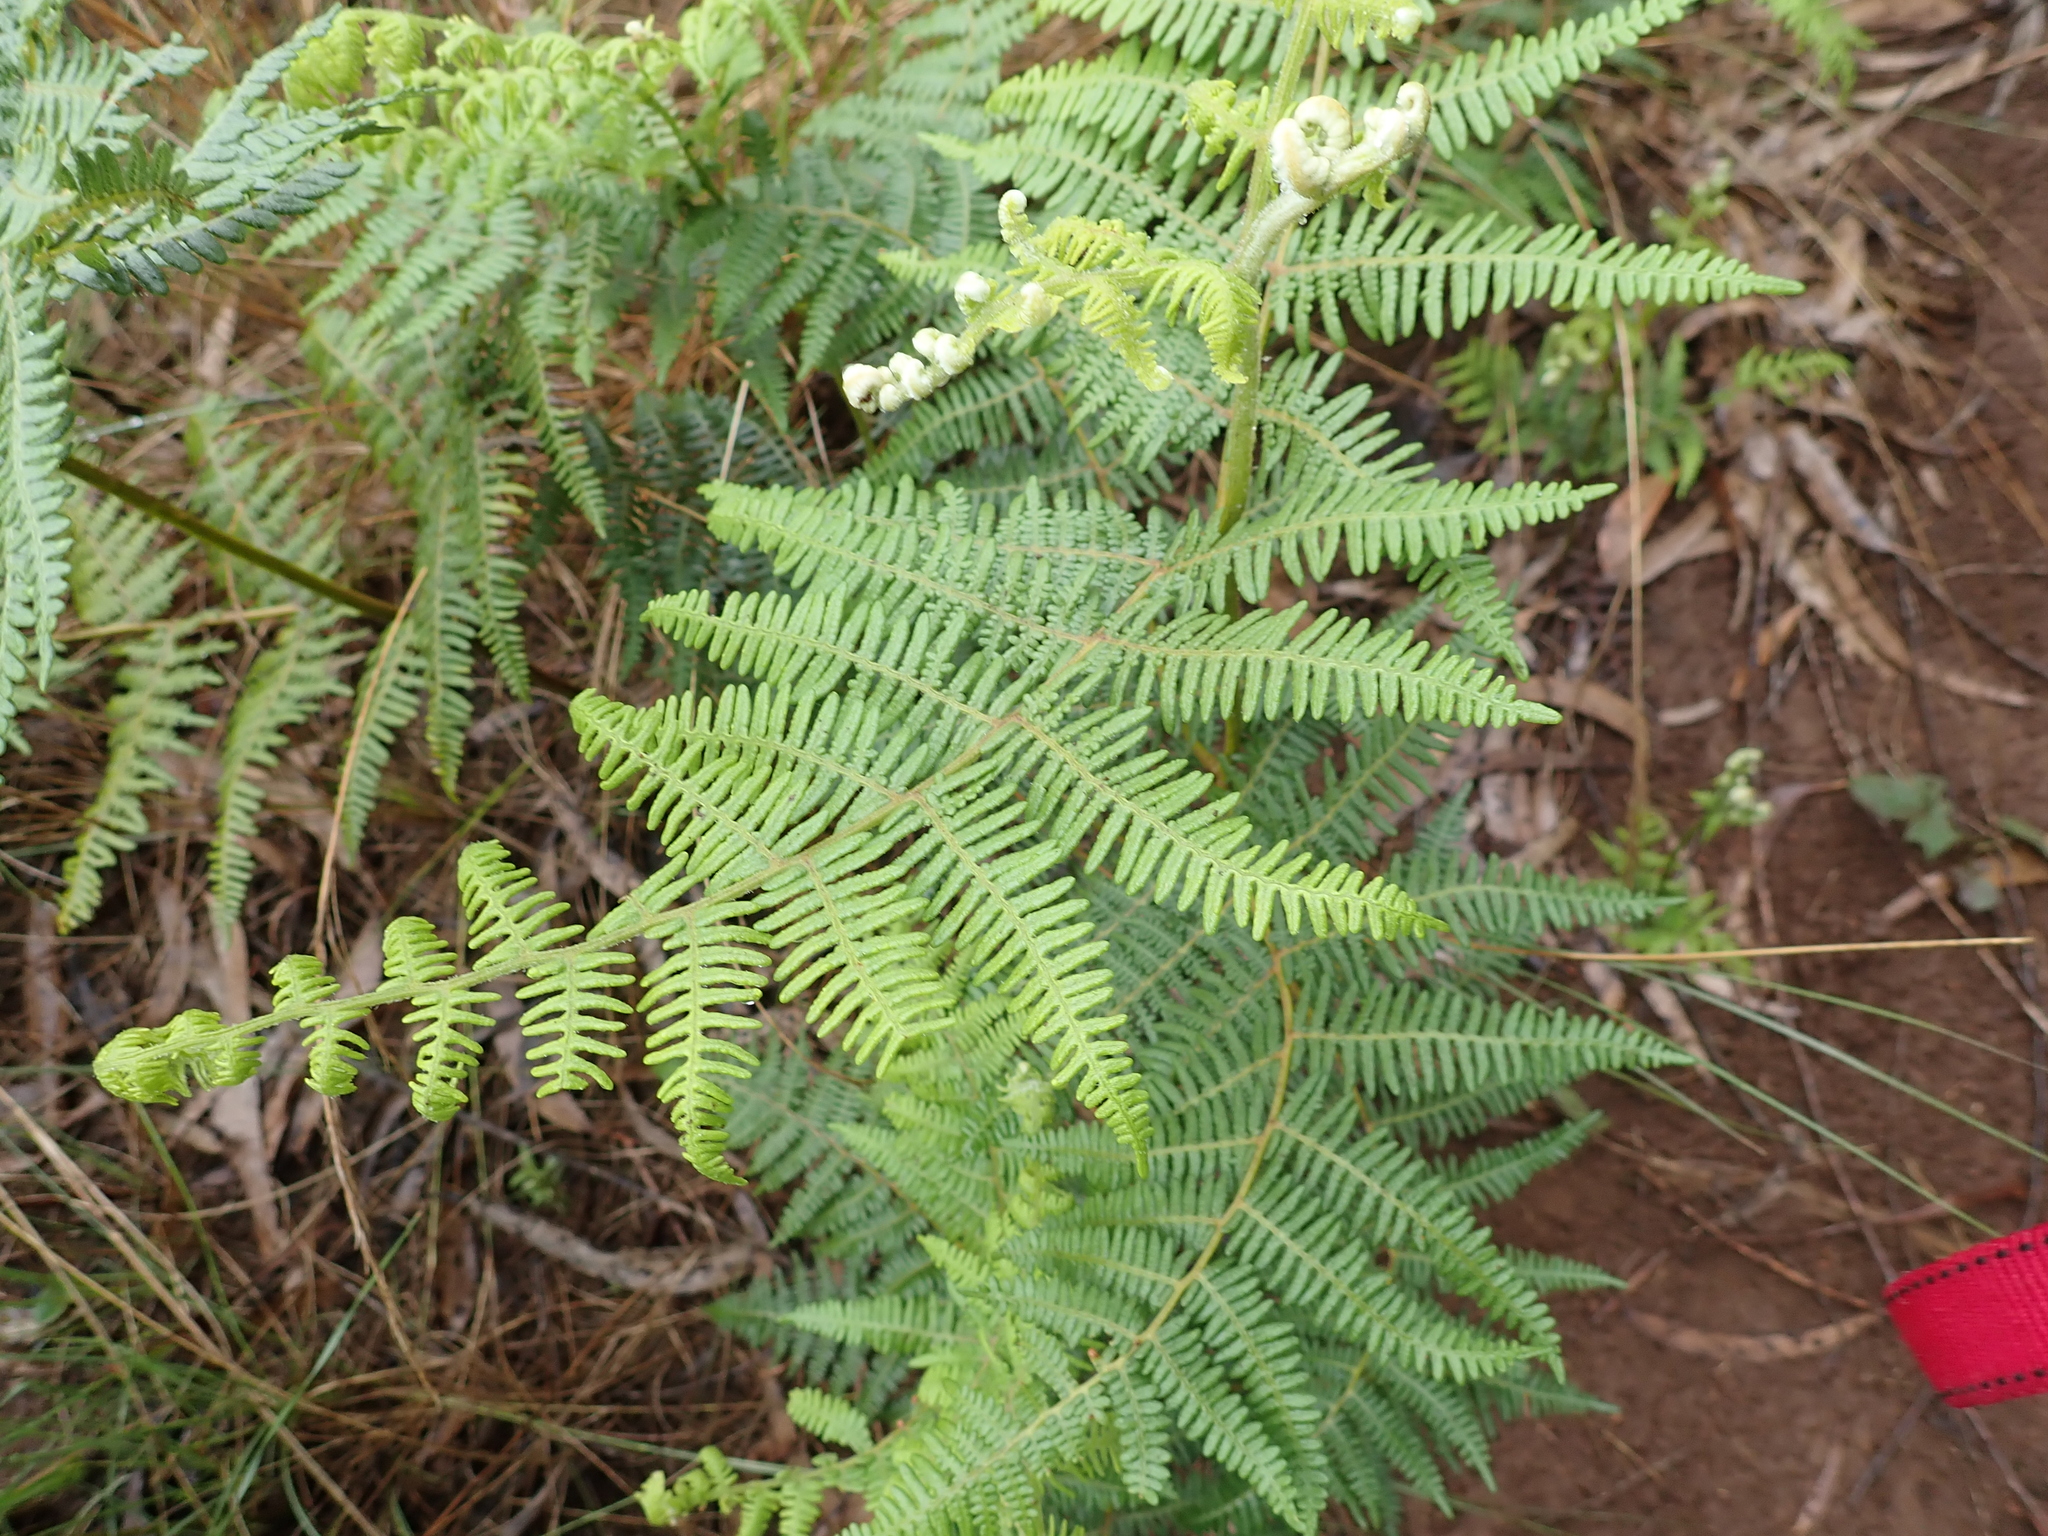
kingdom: Plantae
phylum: Tracheophyta
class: Polypodiopsida
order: Polypodiales
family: Dennstaedtiaceae
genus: Pteridium
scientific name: Pteridium aquilinum
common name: Bracken
